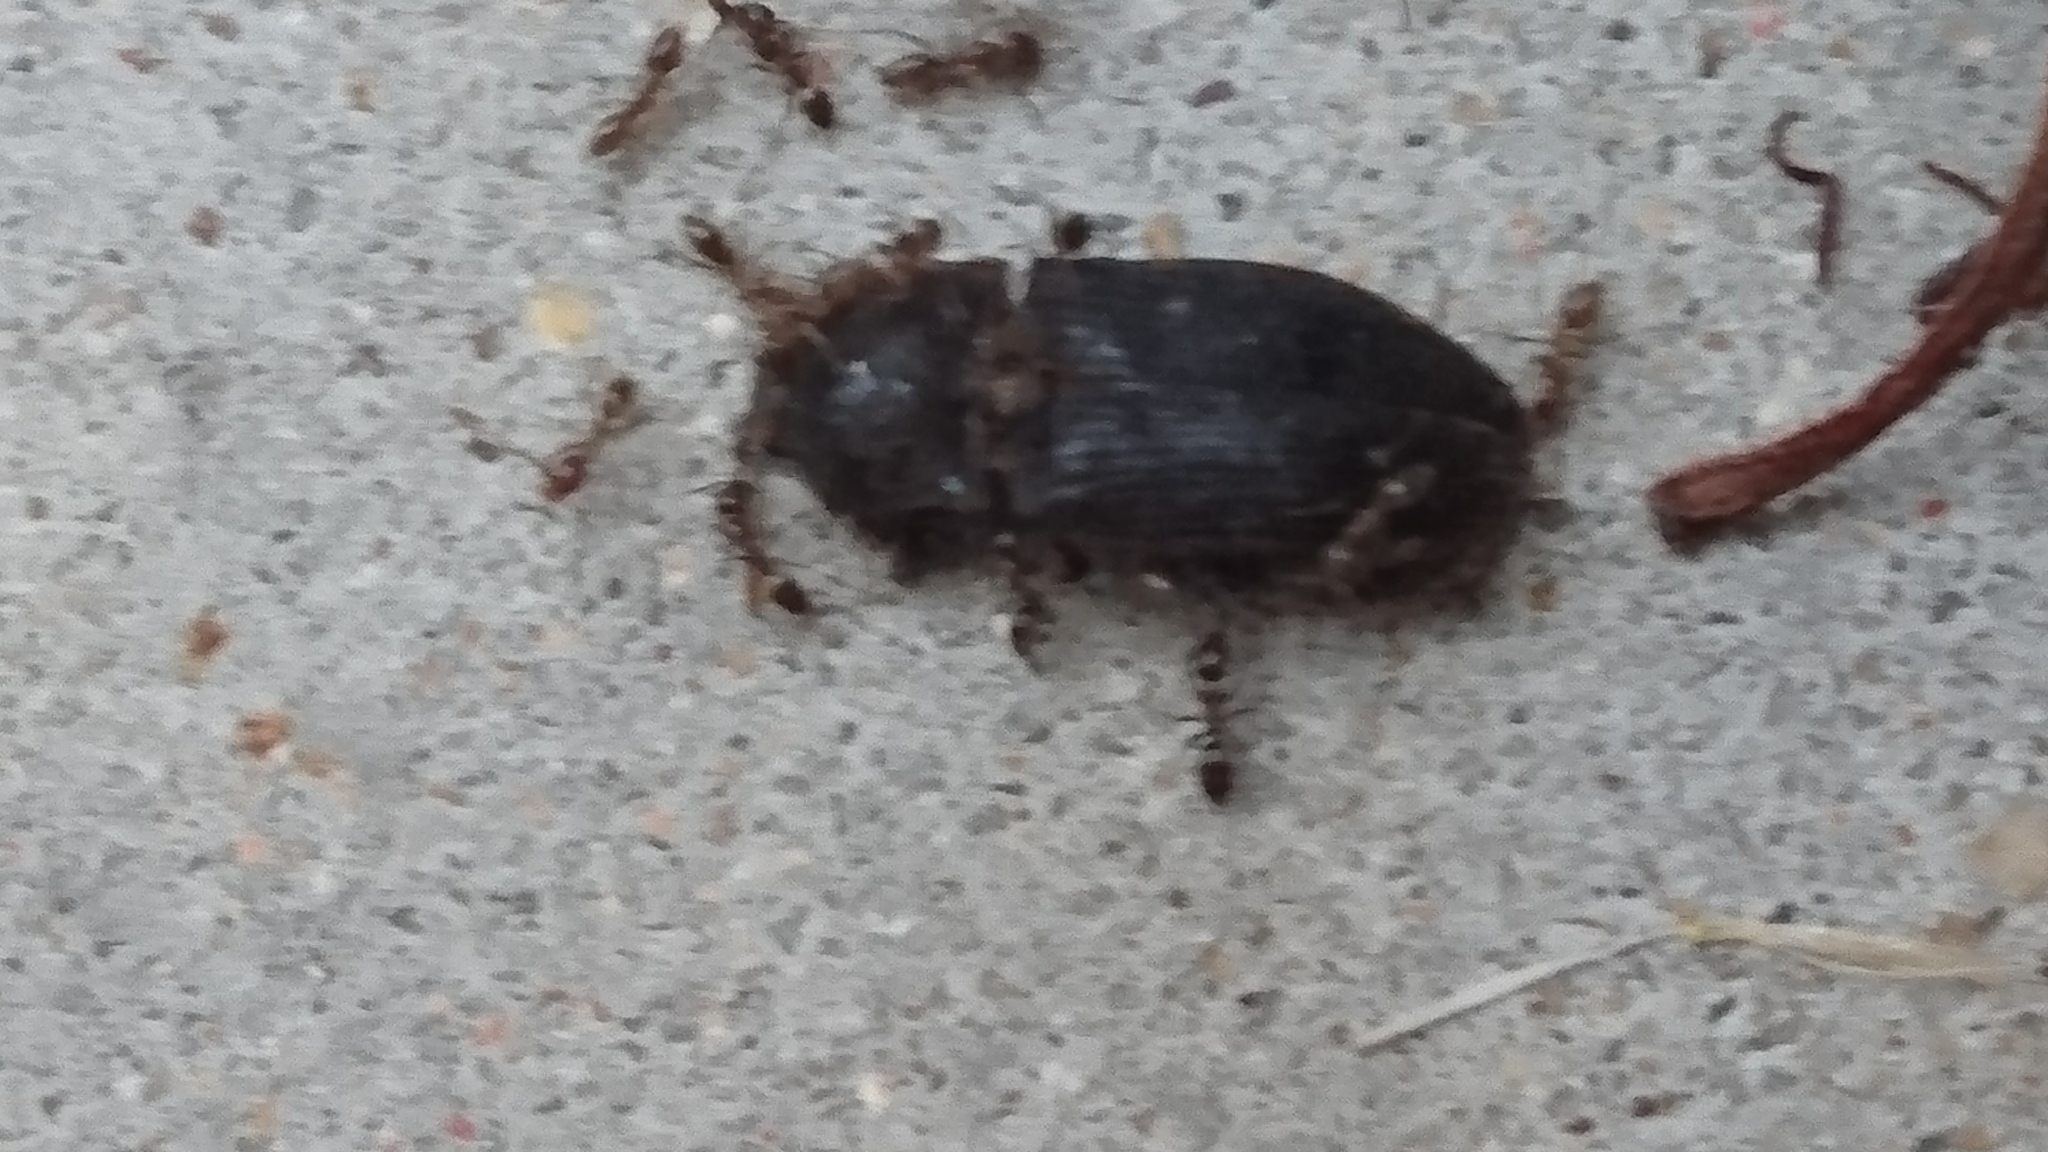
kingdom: Animalia
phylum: Arthropoda
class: Insecta
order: Hymenoptera
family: Formicidae
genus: Linepithema
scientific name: Linepithema humile
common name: Argentine ant
